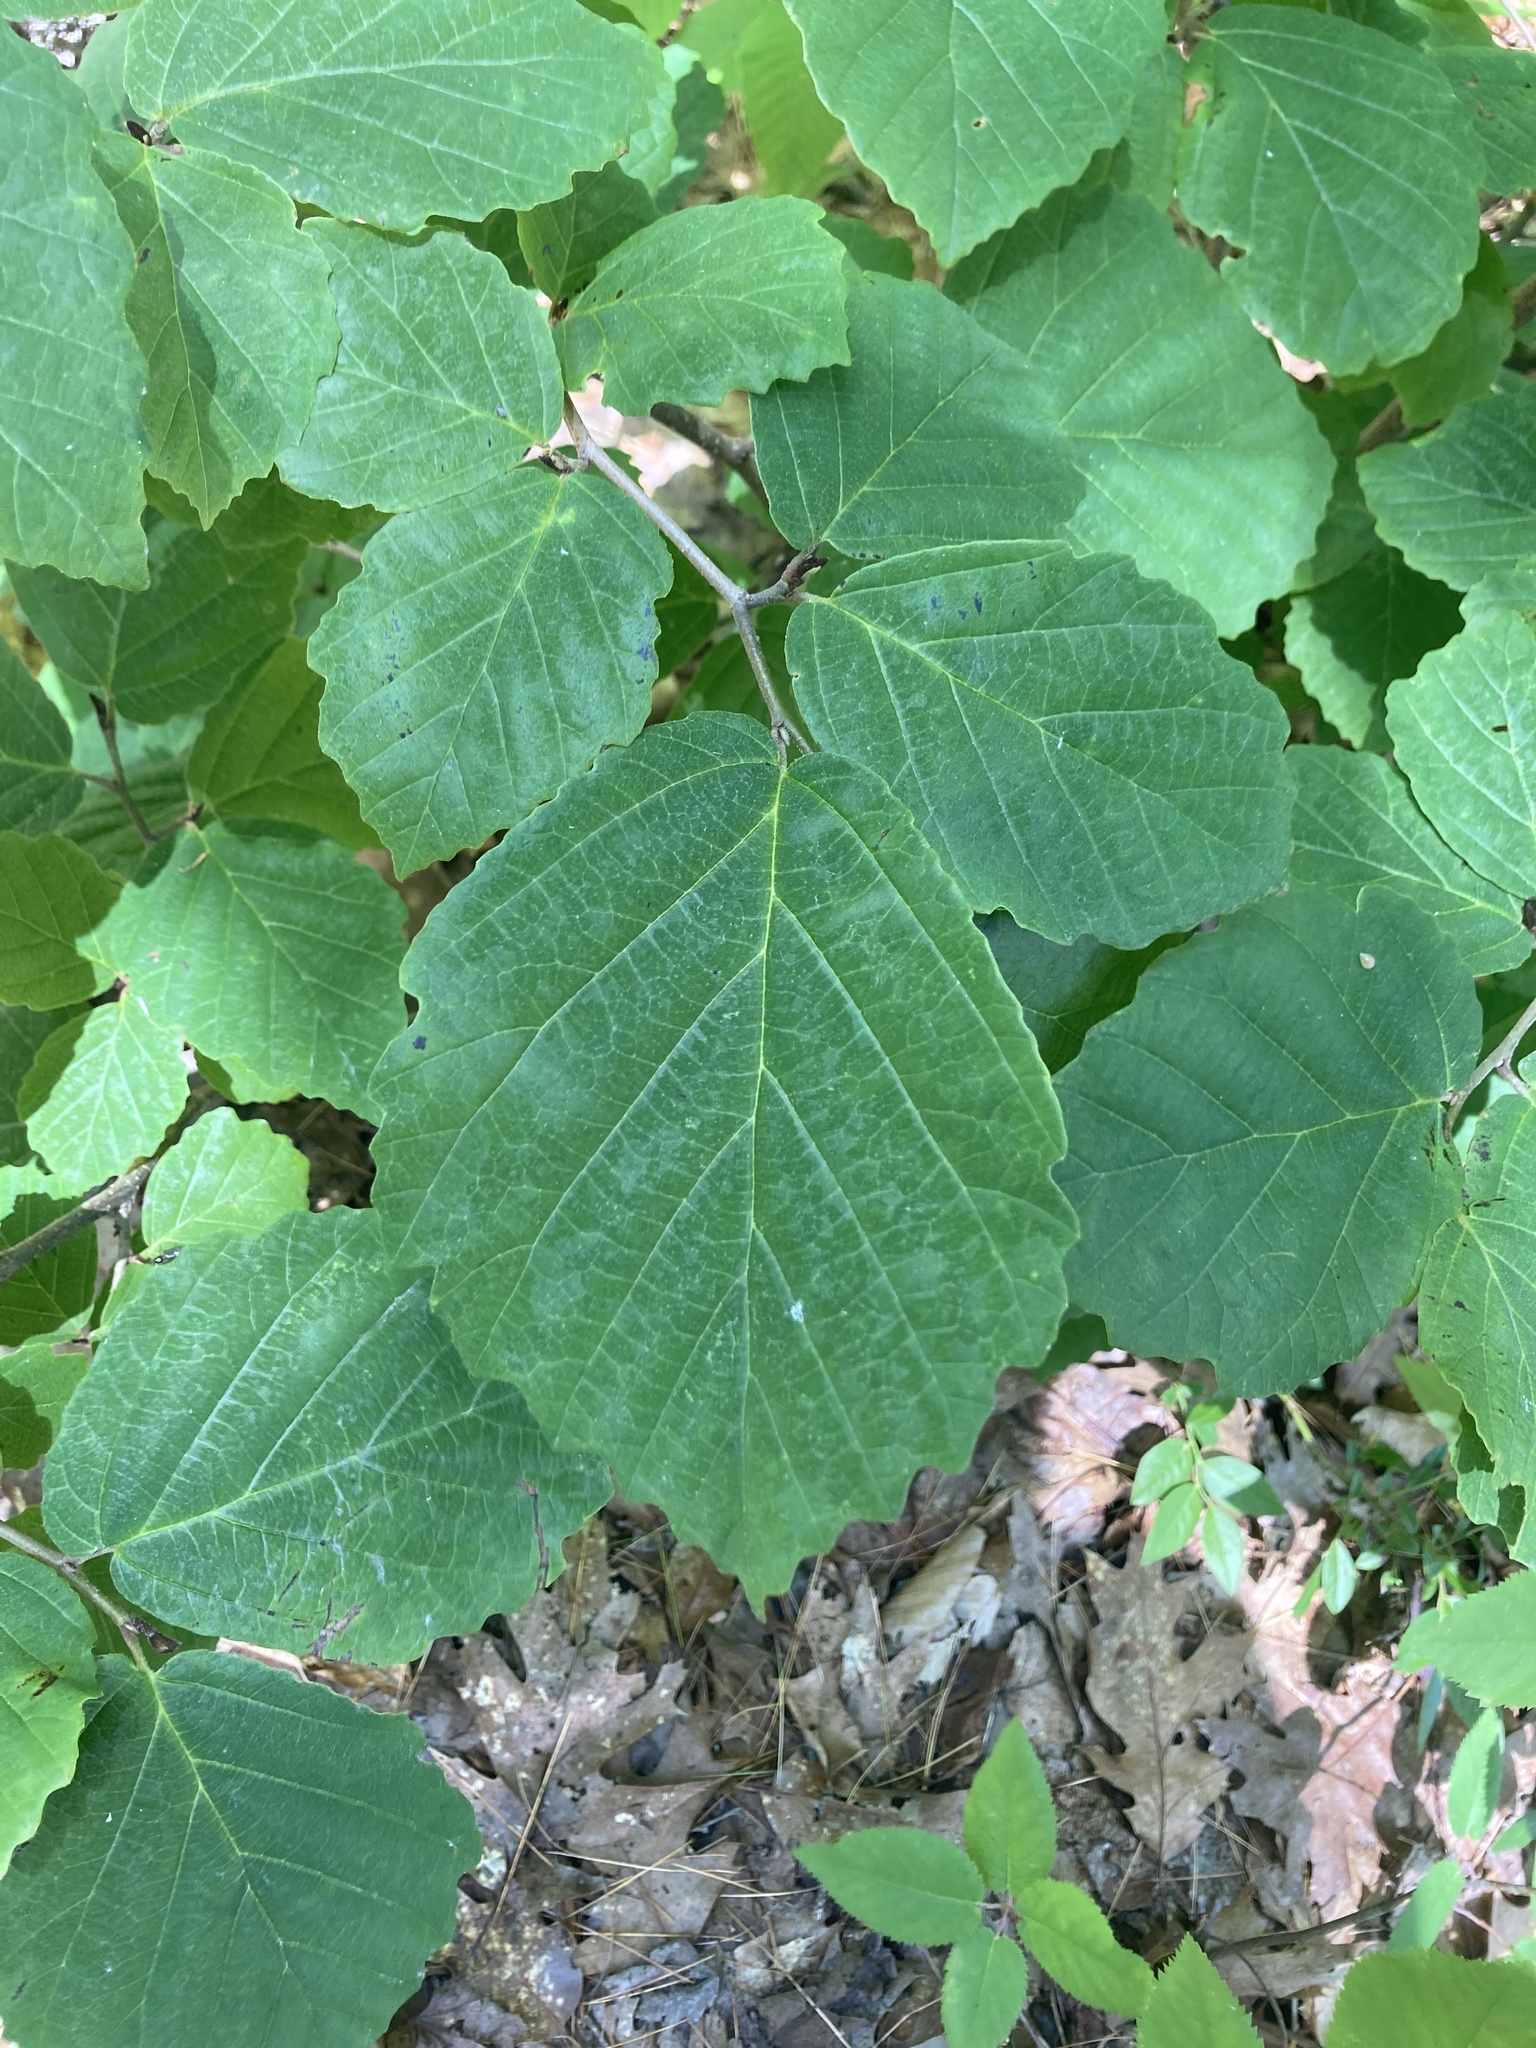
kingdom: Plantae
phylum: Tracheophyta
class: Magnoliopsida
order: Saxifragales
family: Hamamelidaceae
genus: Hamamelis
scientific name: Hamamelis virginiana
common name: Witch-hazel
